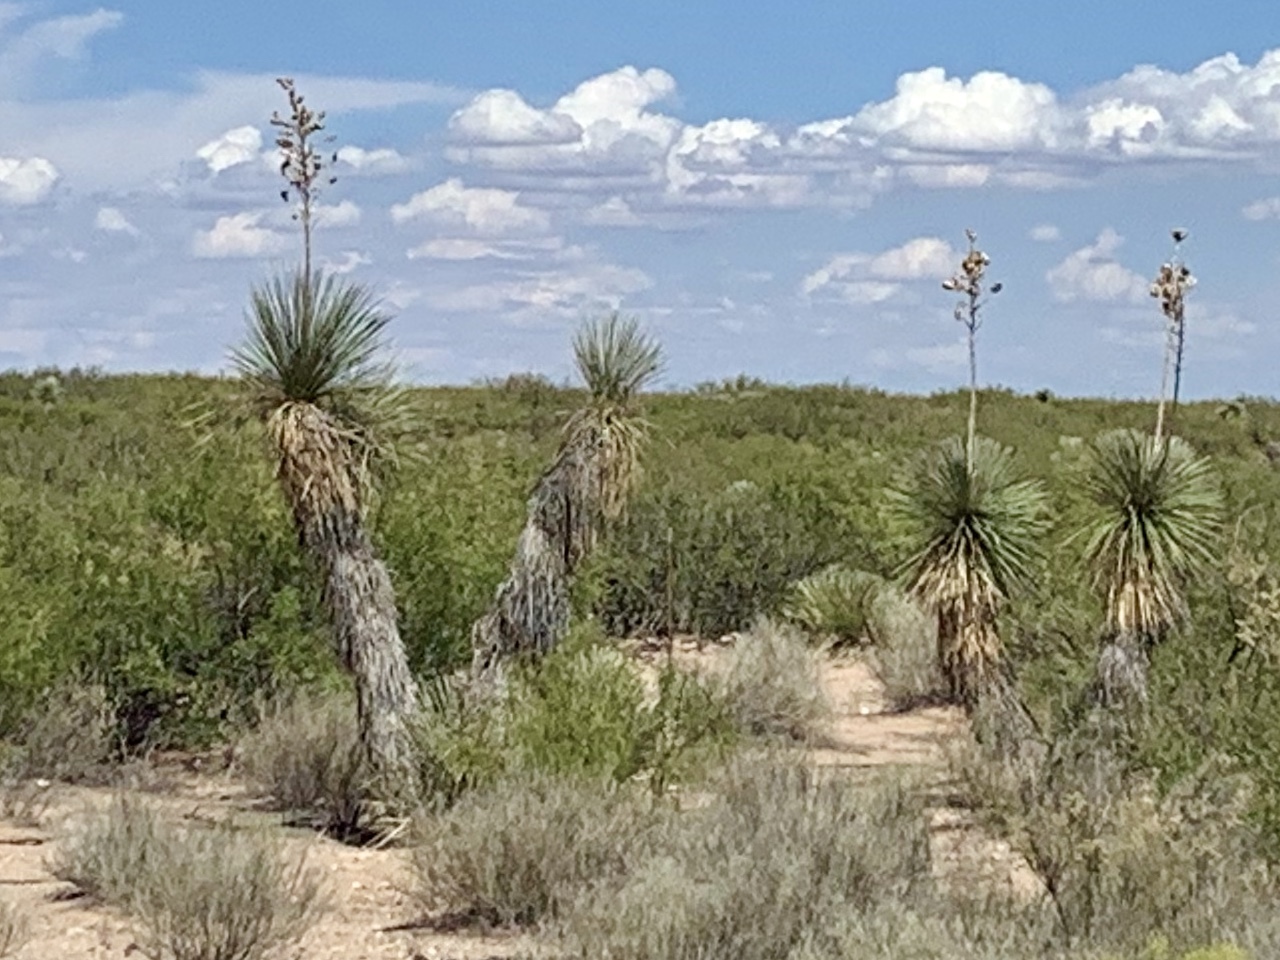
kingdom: Plantae
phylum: Tracheophyta
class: Liliopsida
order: Asparagales
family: Asparagaceae
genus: Yucca
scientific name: Yucca elata
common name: Palmella
